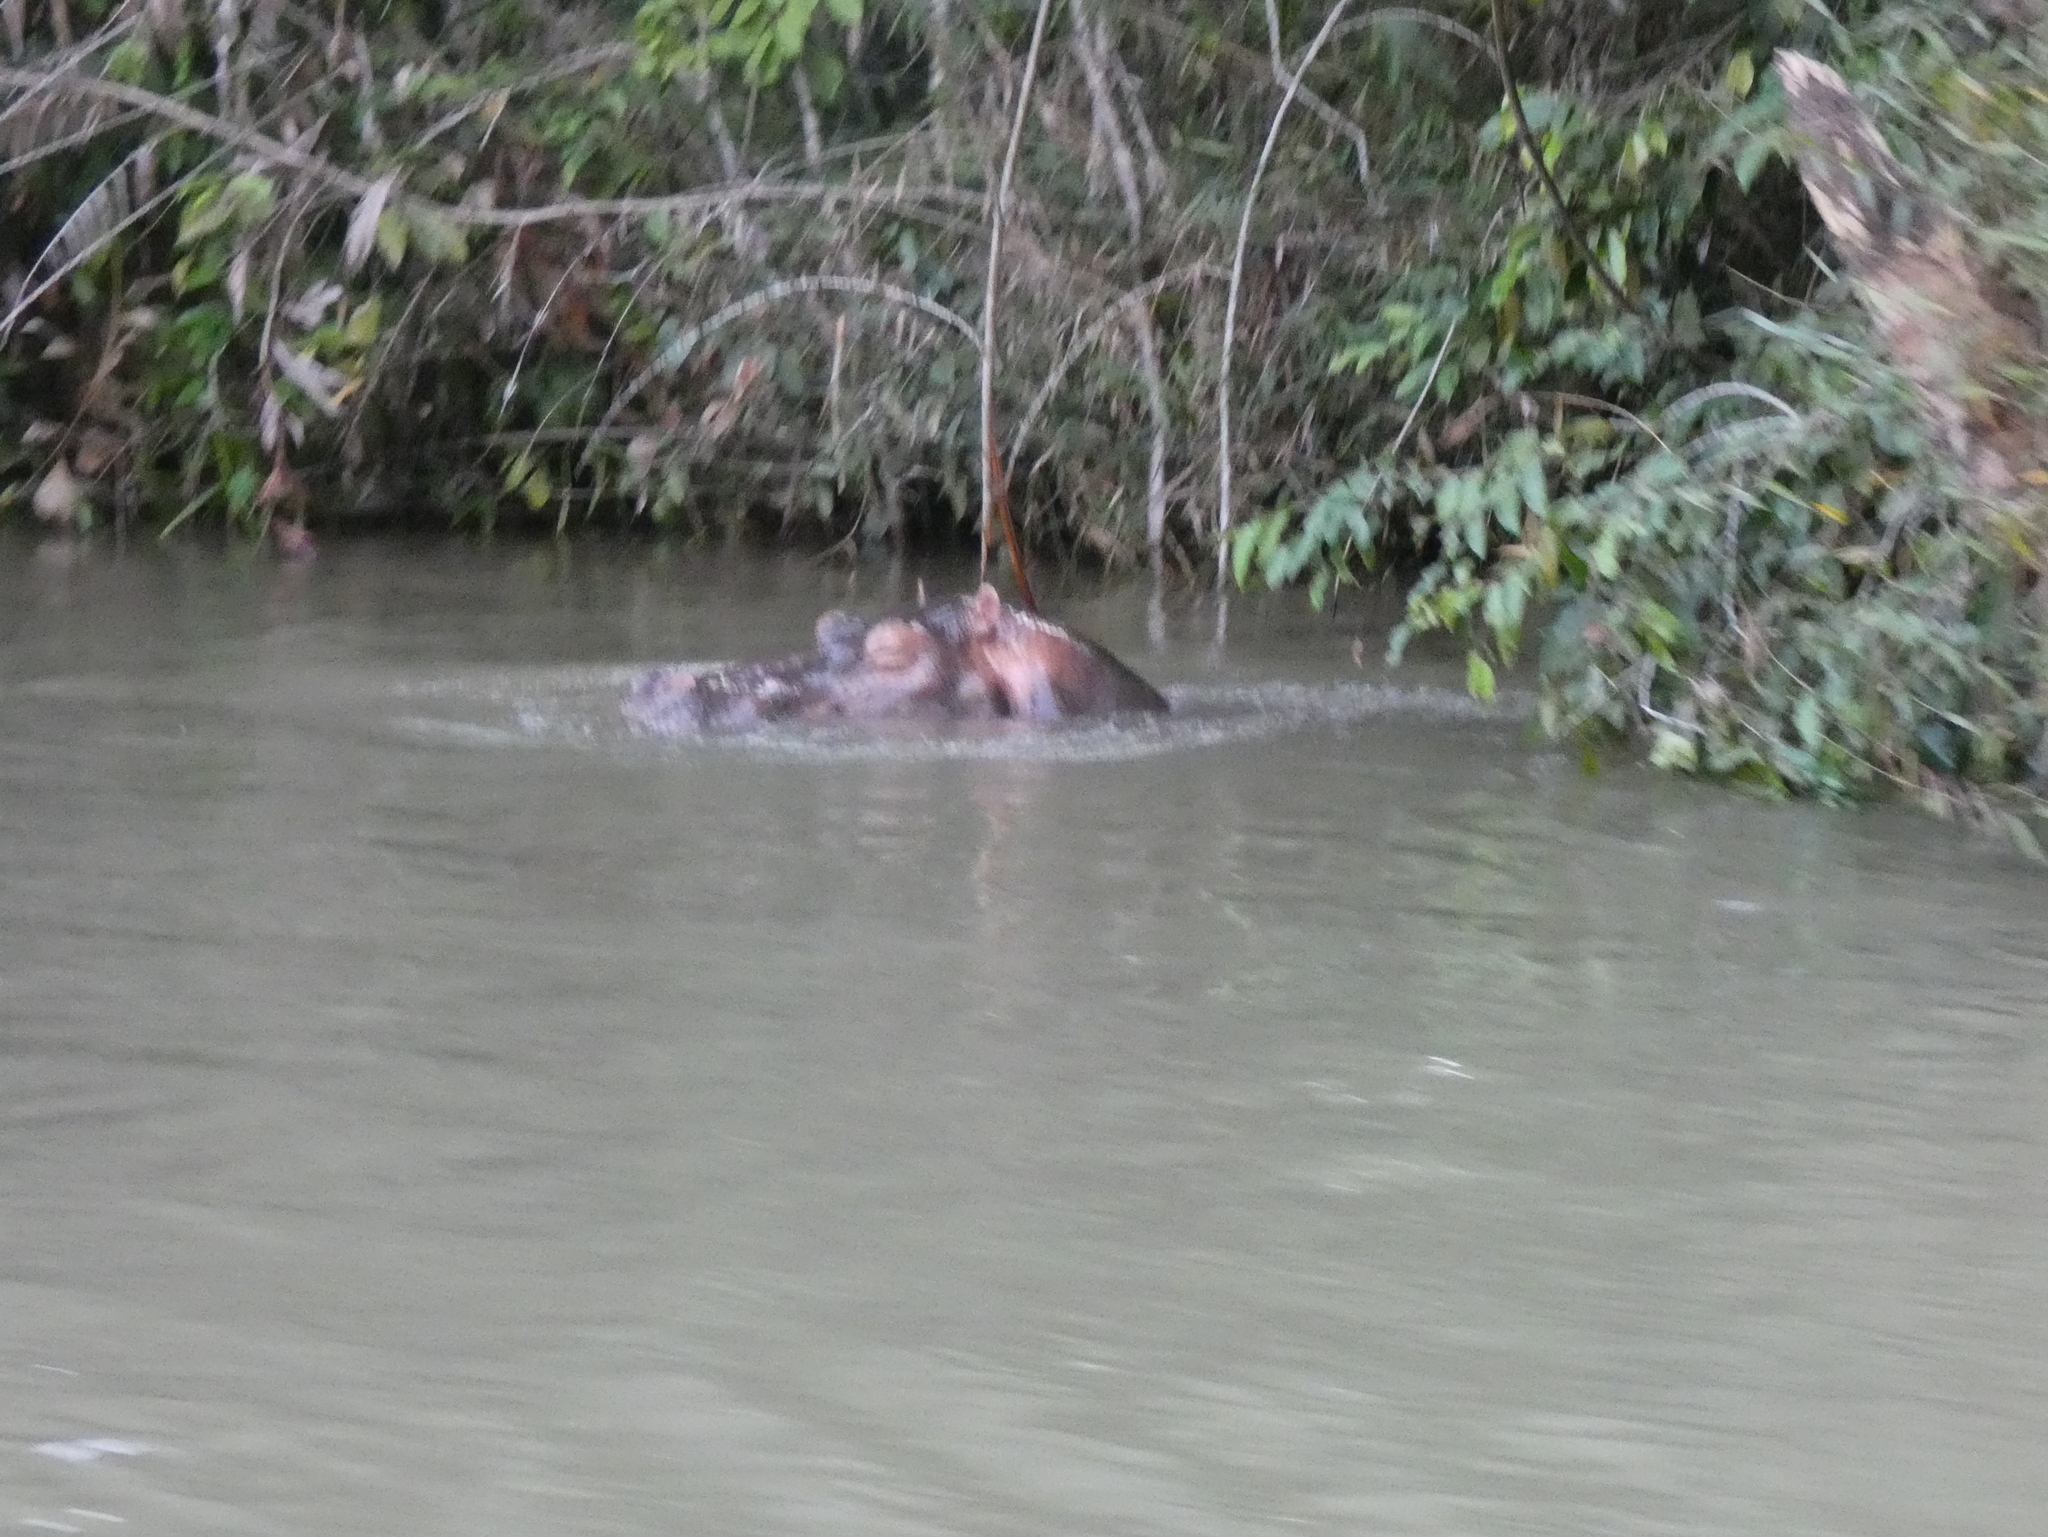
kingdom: Animalia
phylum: Chordata
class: Mammalia
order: Artiodactyla
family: Hippopotamidae
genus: Hippopotamus
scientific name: Hippopotamus amphibius
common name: Common hippopotamus
